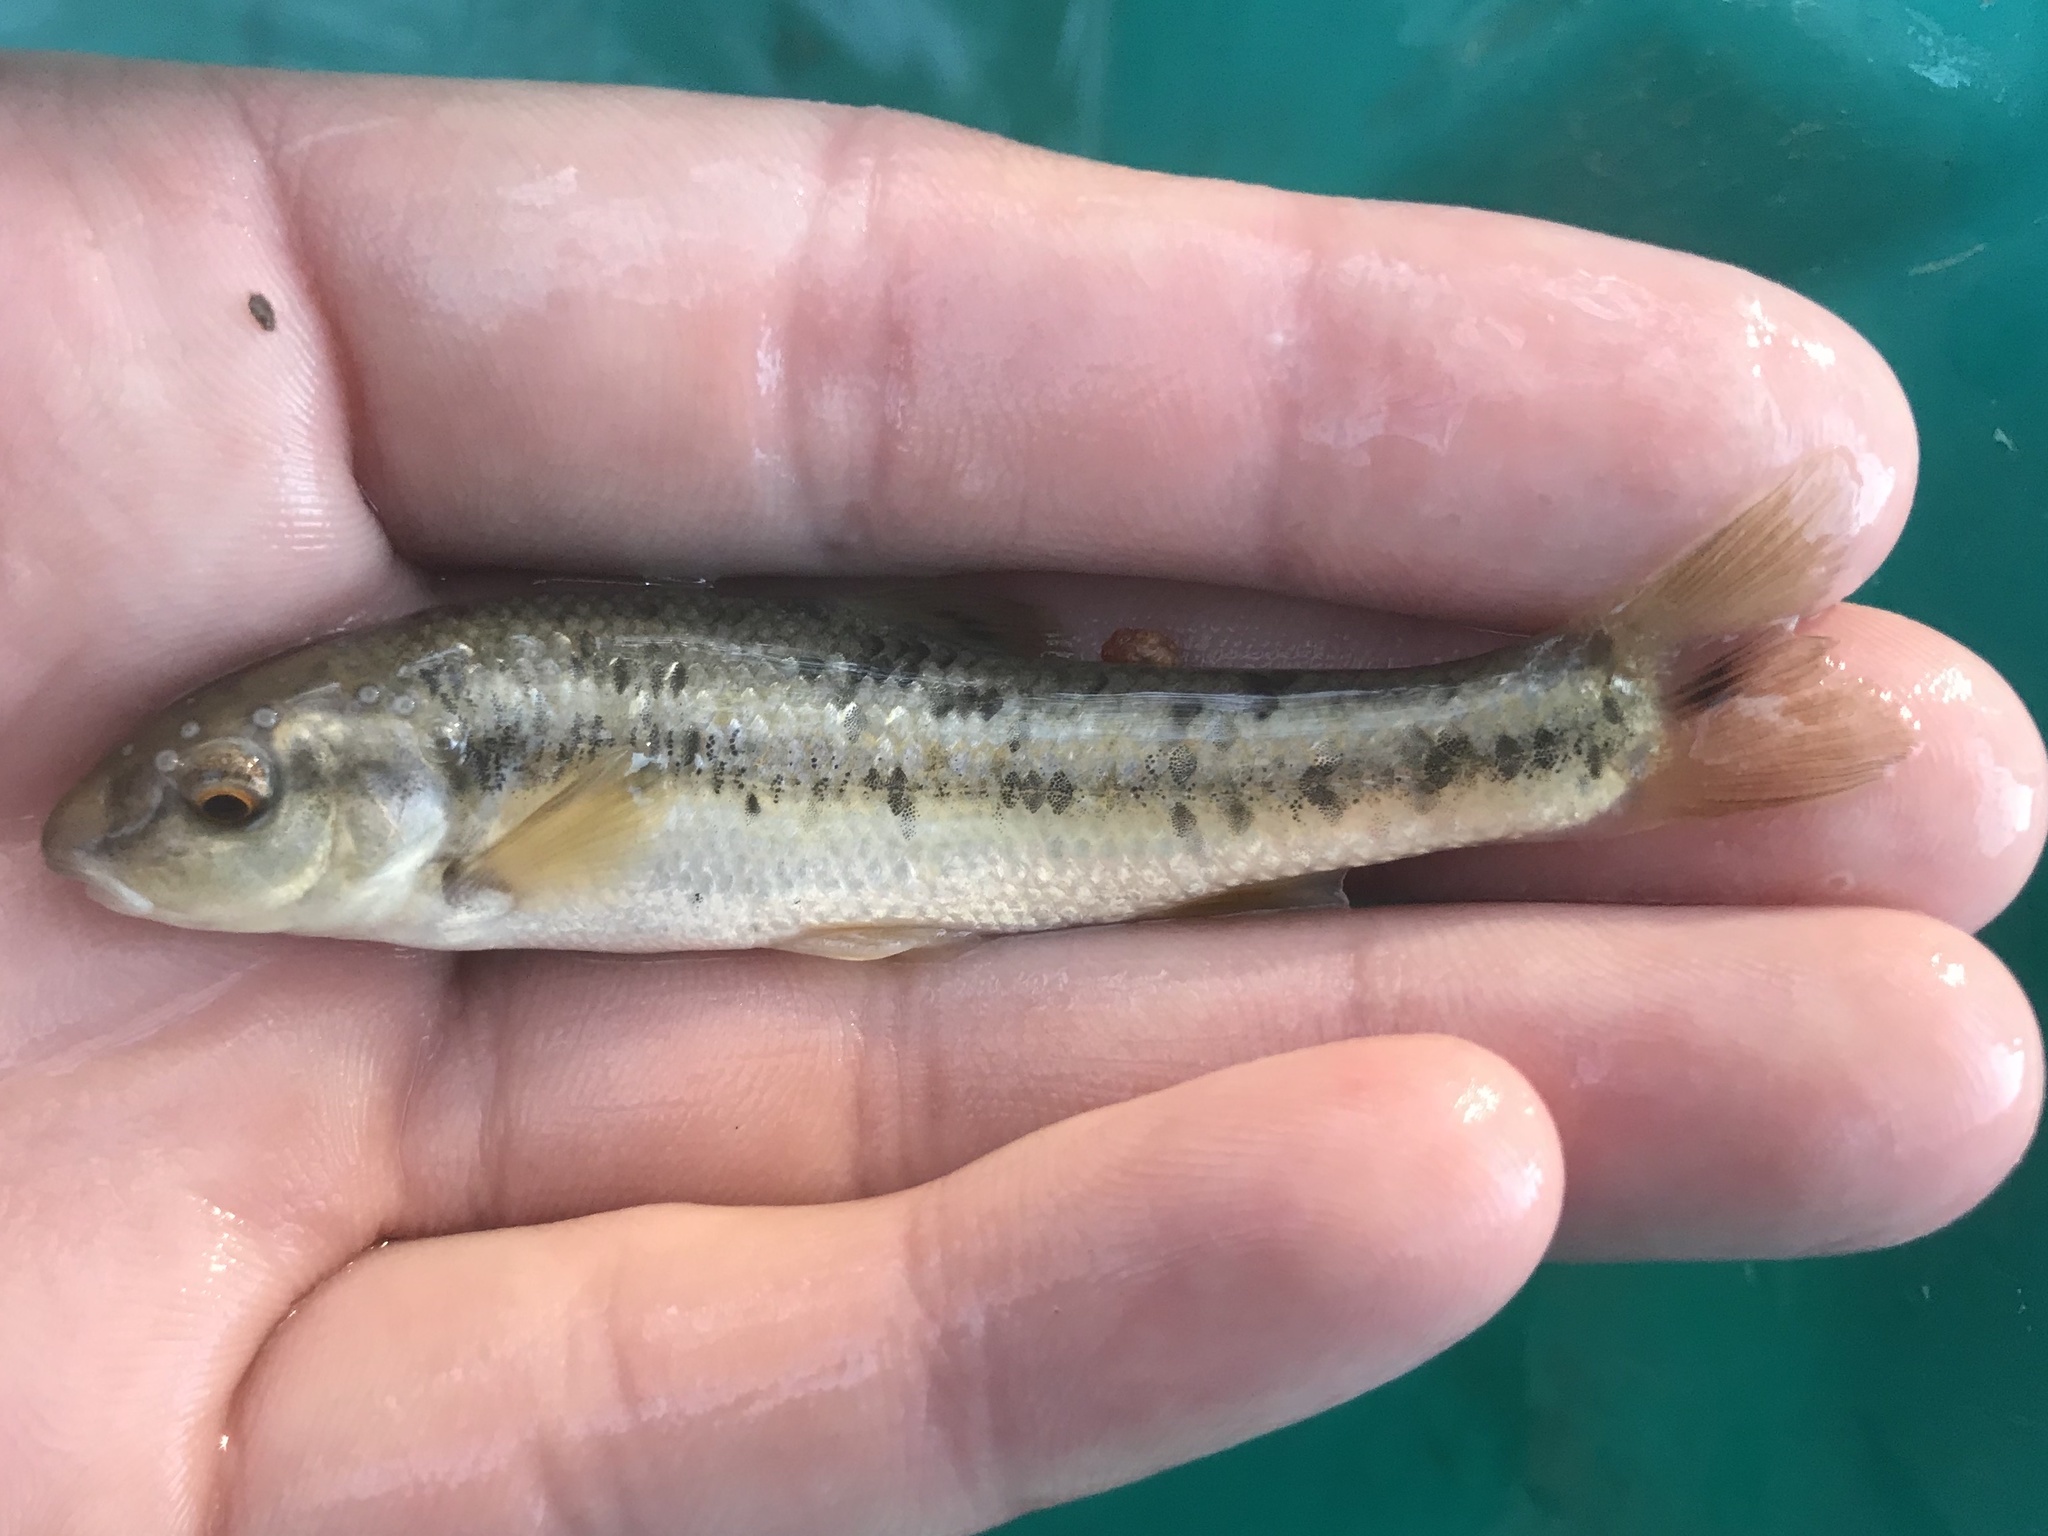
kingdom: Animalia
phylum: Chordata
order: Cypriniformes
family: Cyprinidae
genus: Campostoma
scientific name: Campostoma anomalum
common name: Central stoneroller
